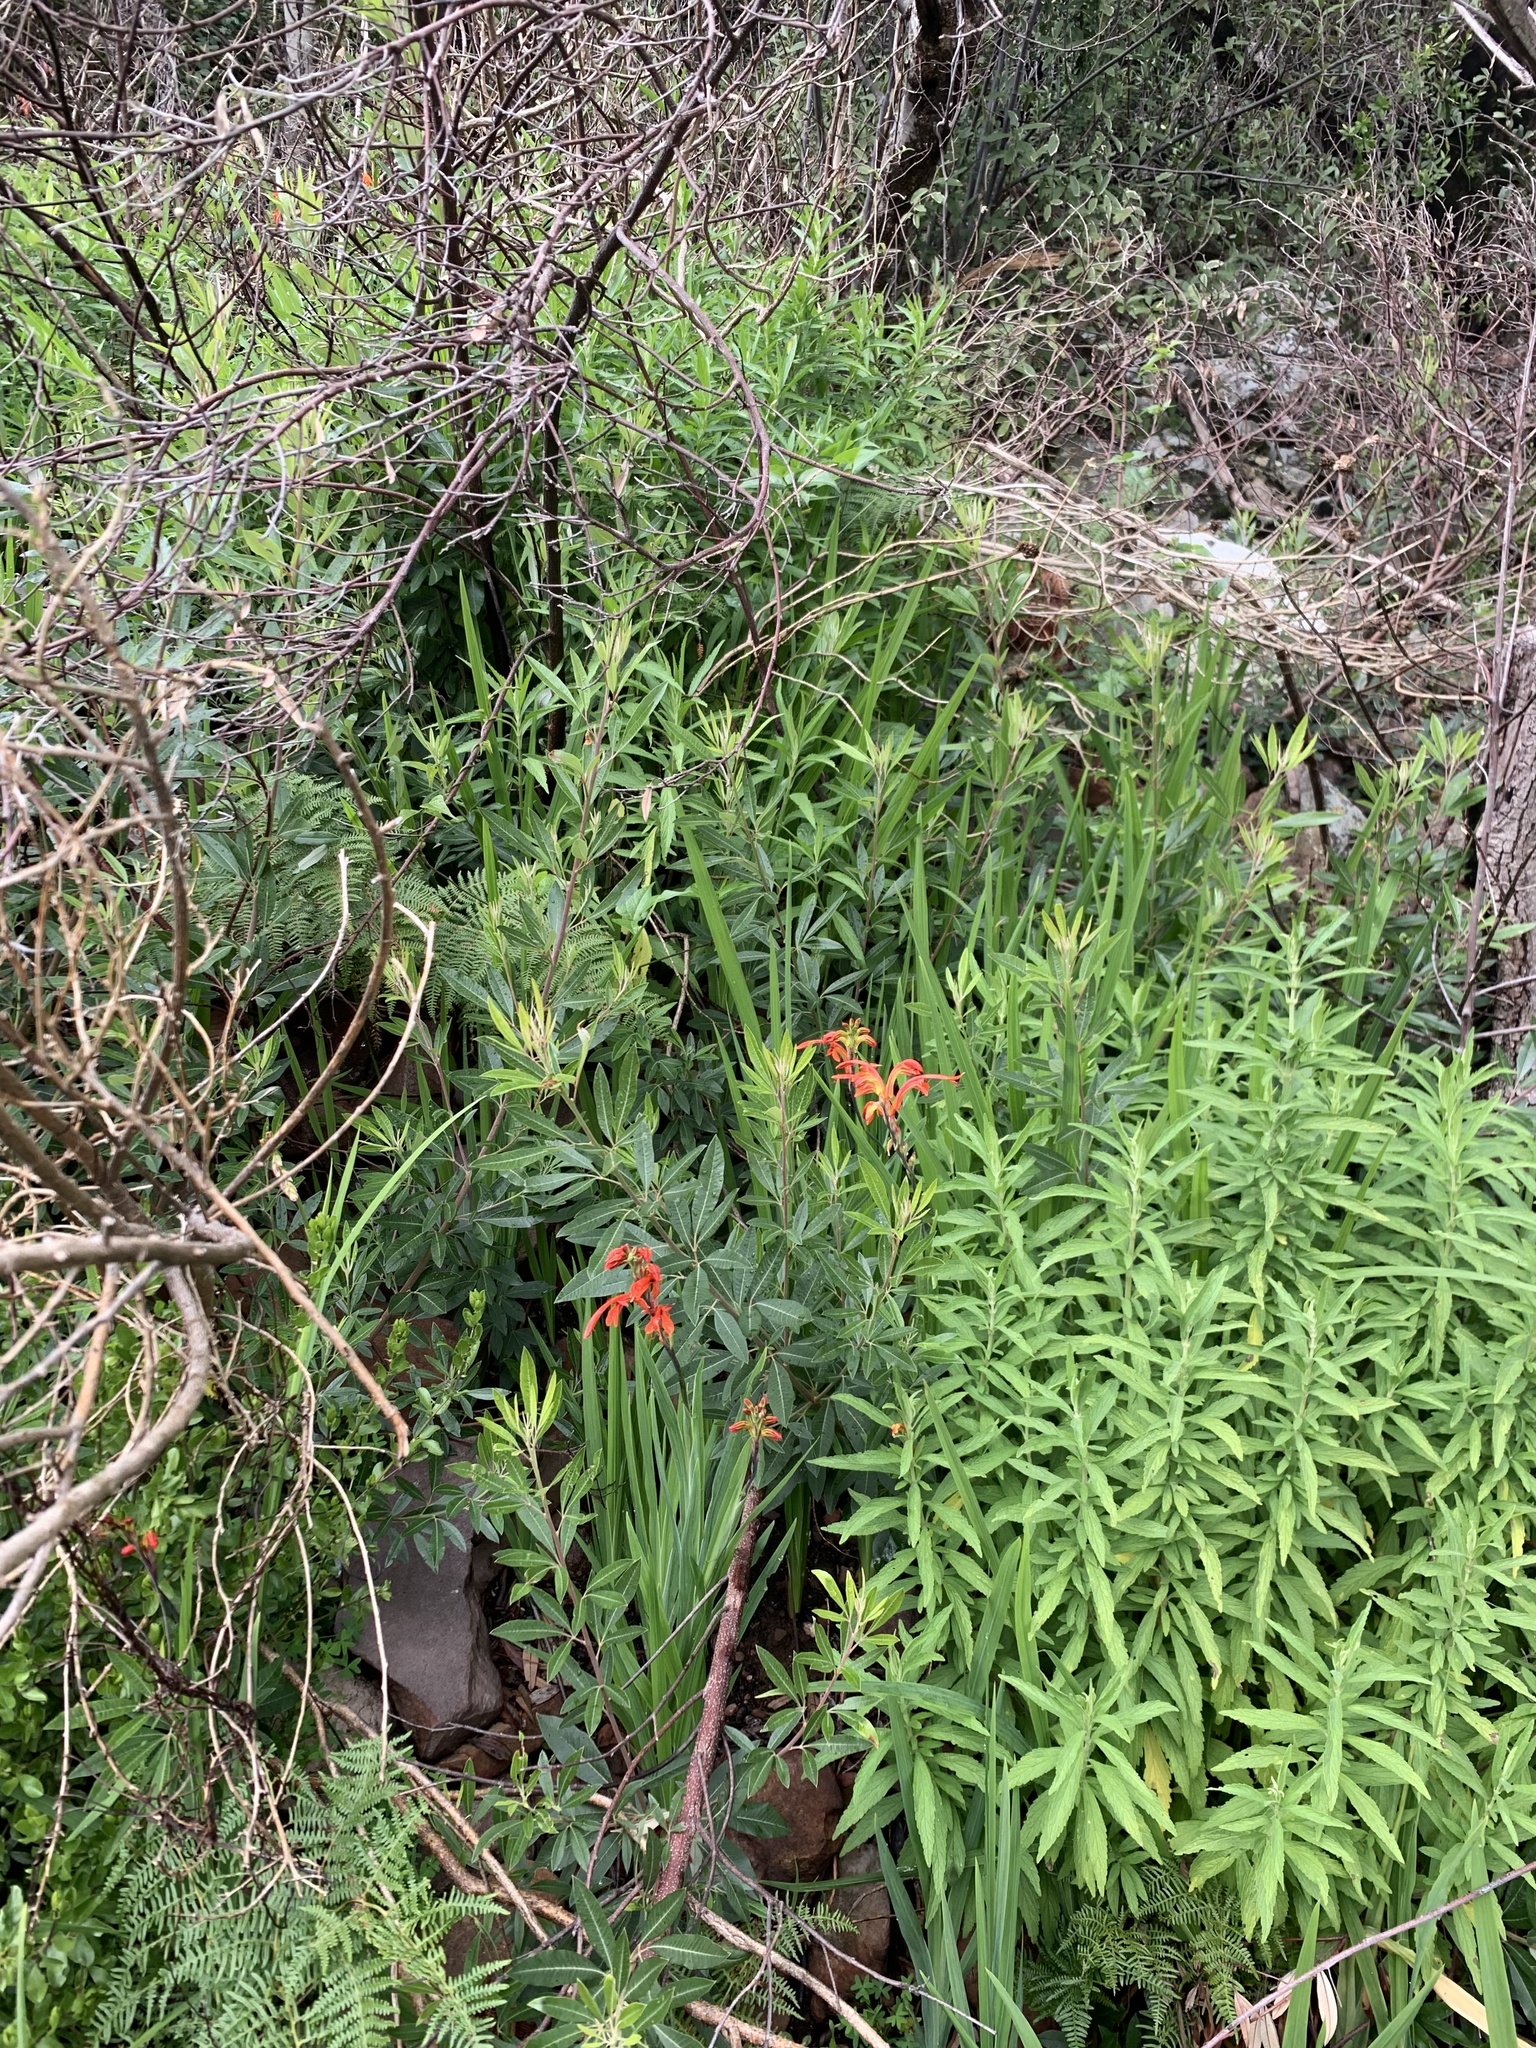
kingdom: Plantae
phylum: Tracheophyta
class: Liliopsida
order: Asparagales
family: Iridaceae
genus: Chasmanthe
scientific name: Chasmanthe aethiopica
